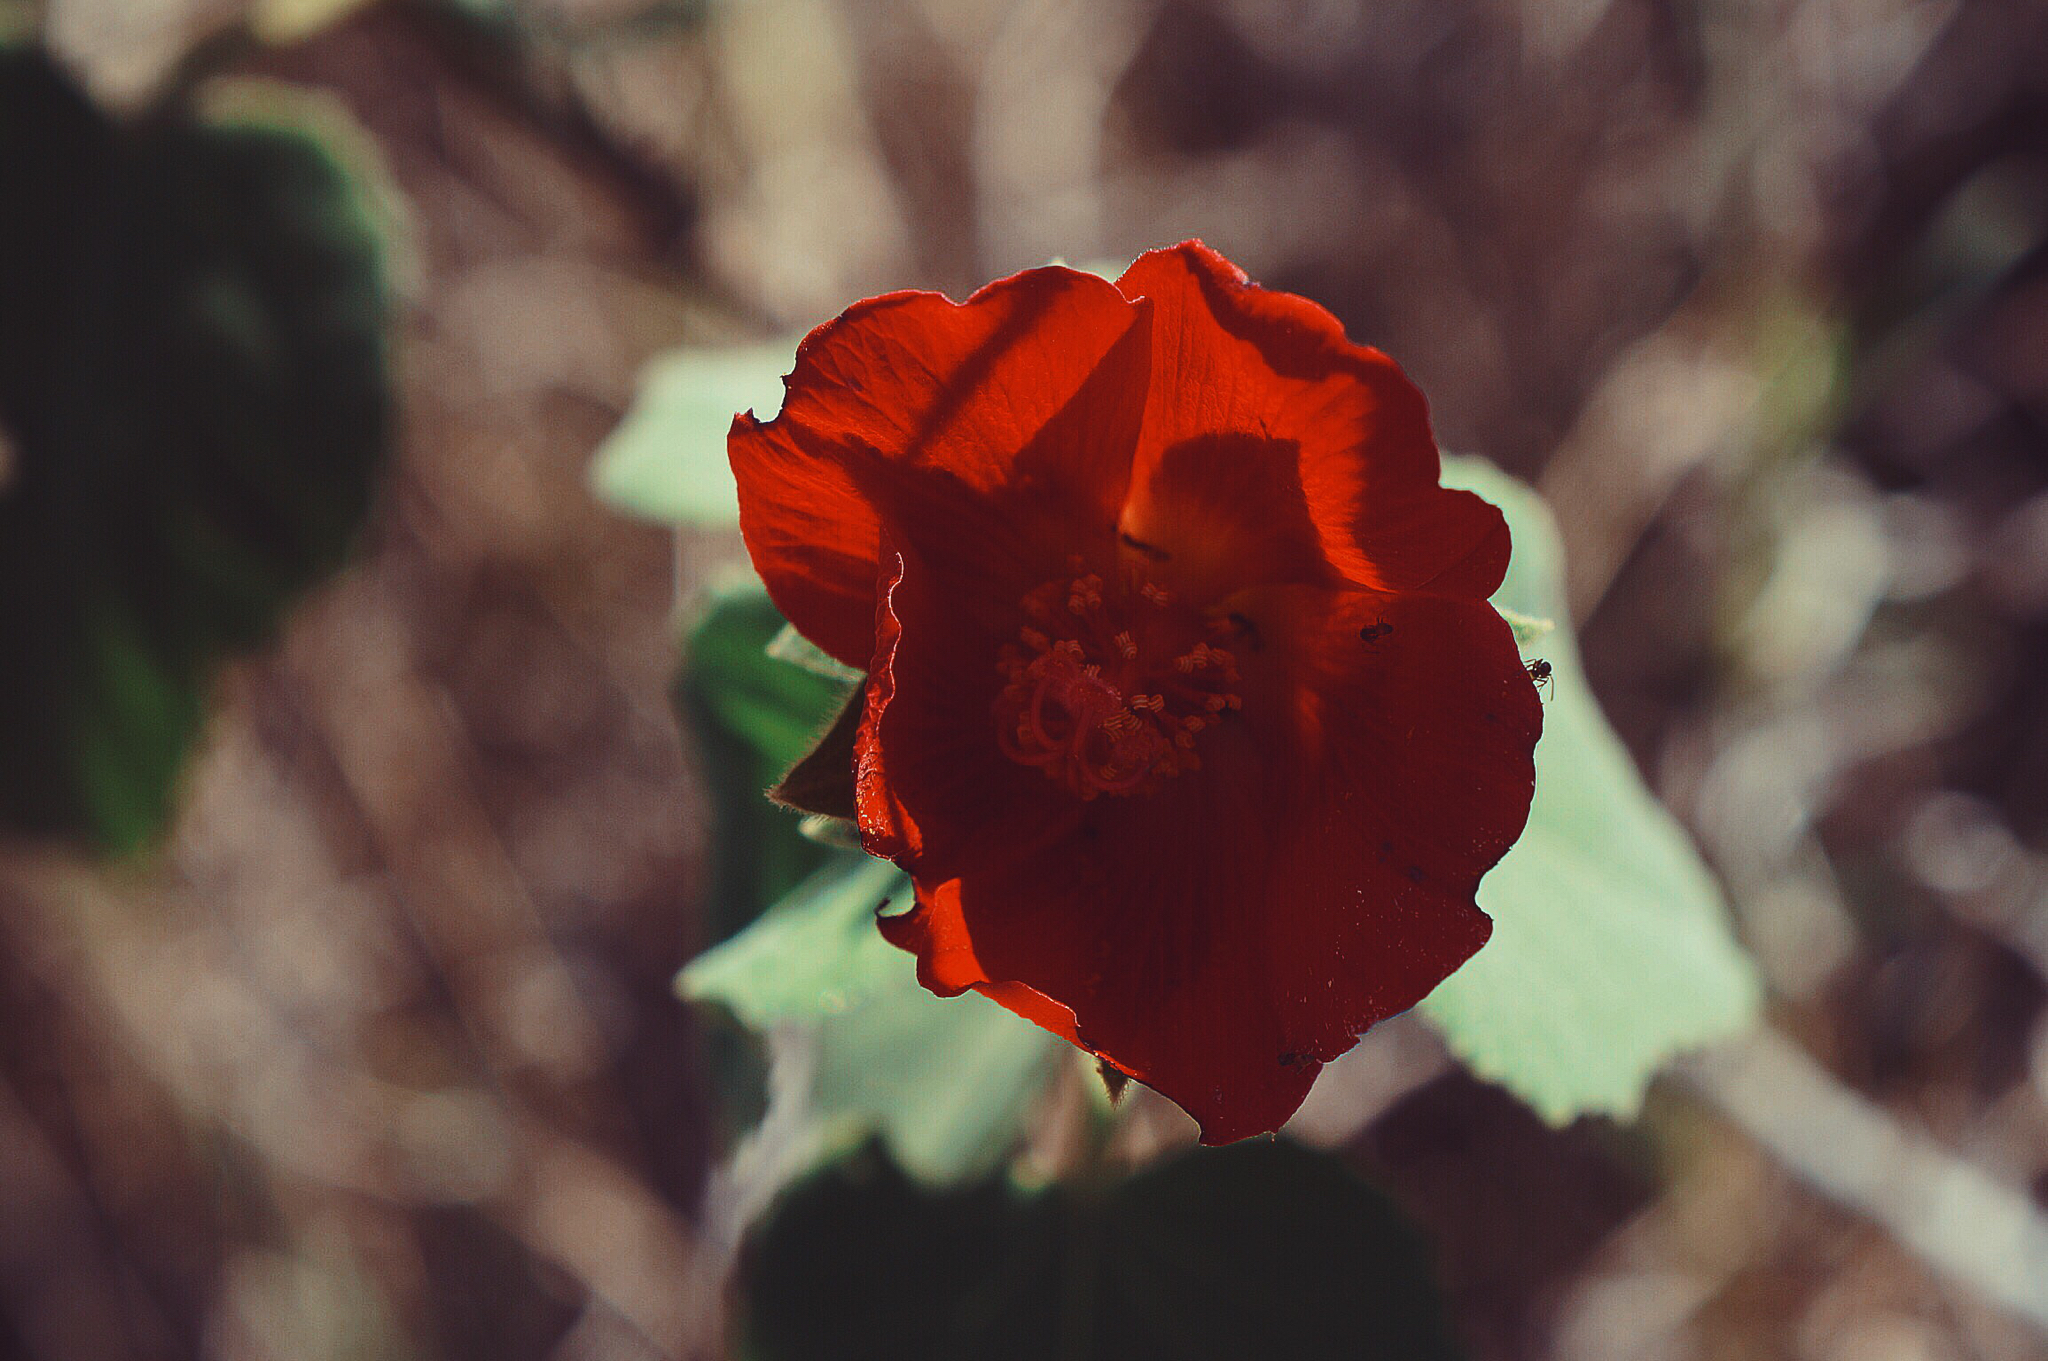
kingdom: Plantae
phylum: Tracheophyta
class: Magnoliopsida
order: Malvales
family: Malvaceae
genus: Hibiscus
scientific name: Hibiscus martianus
